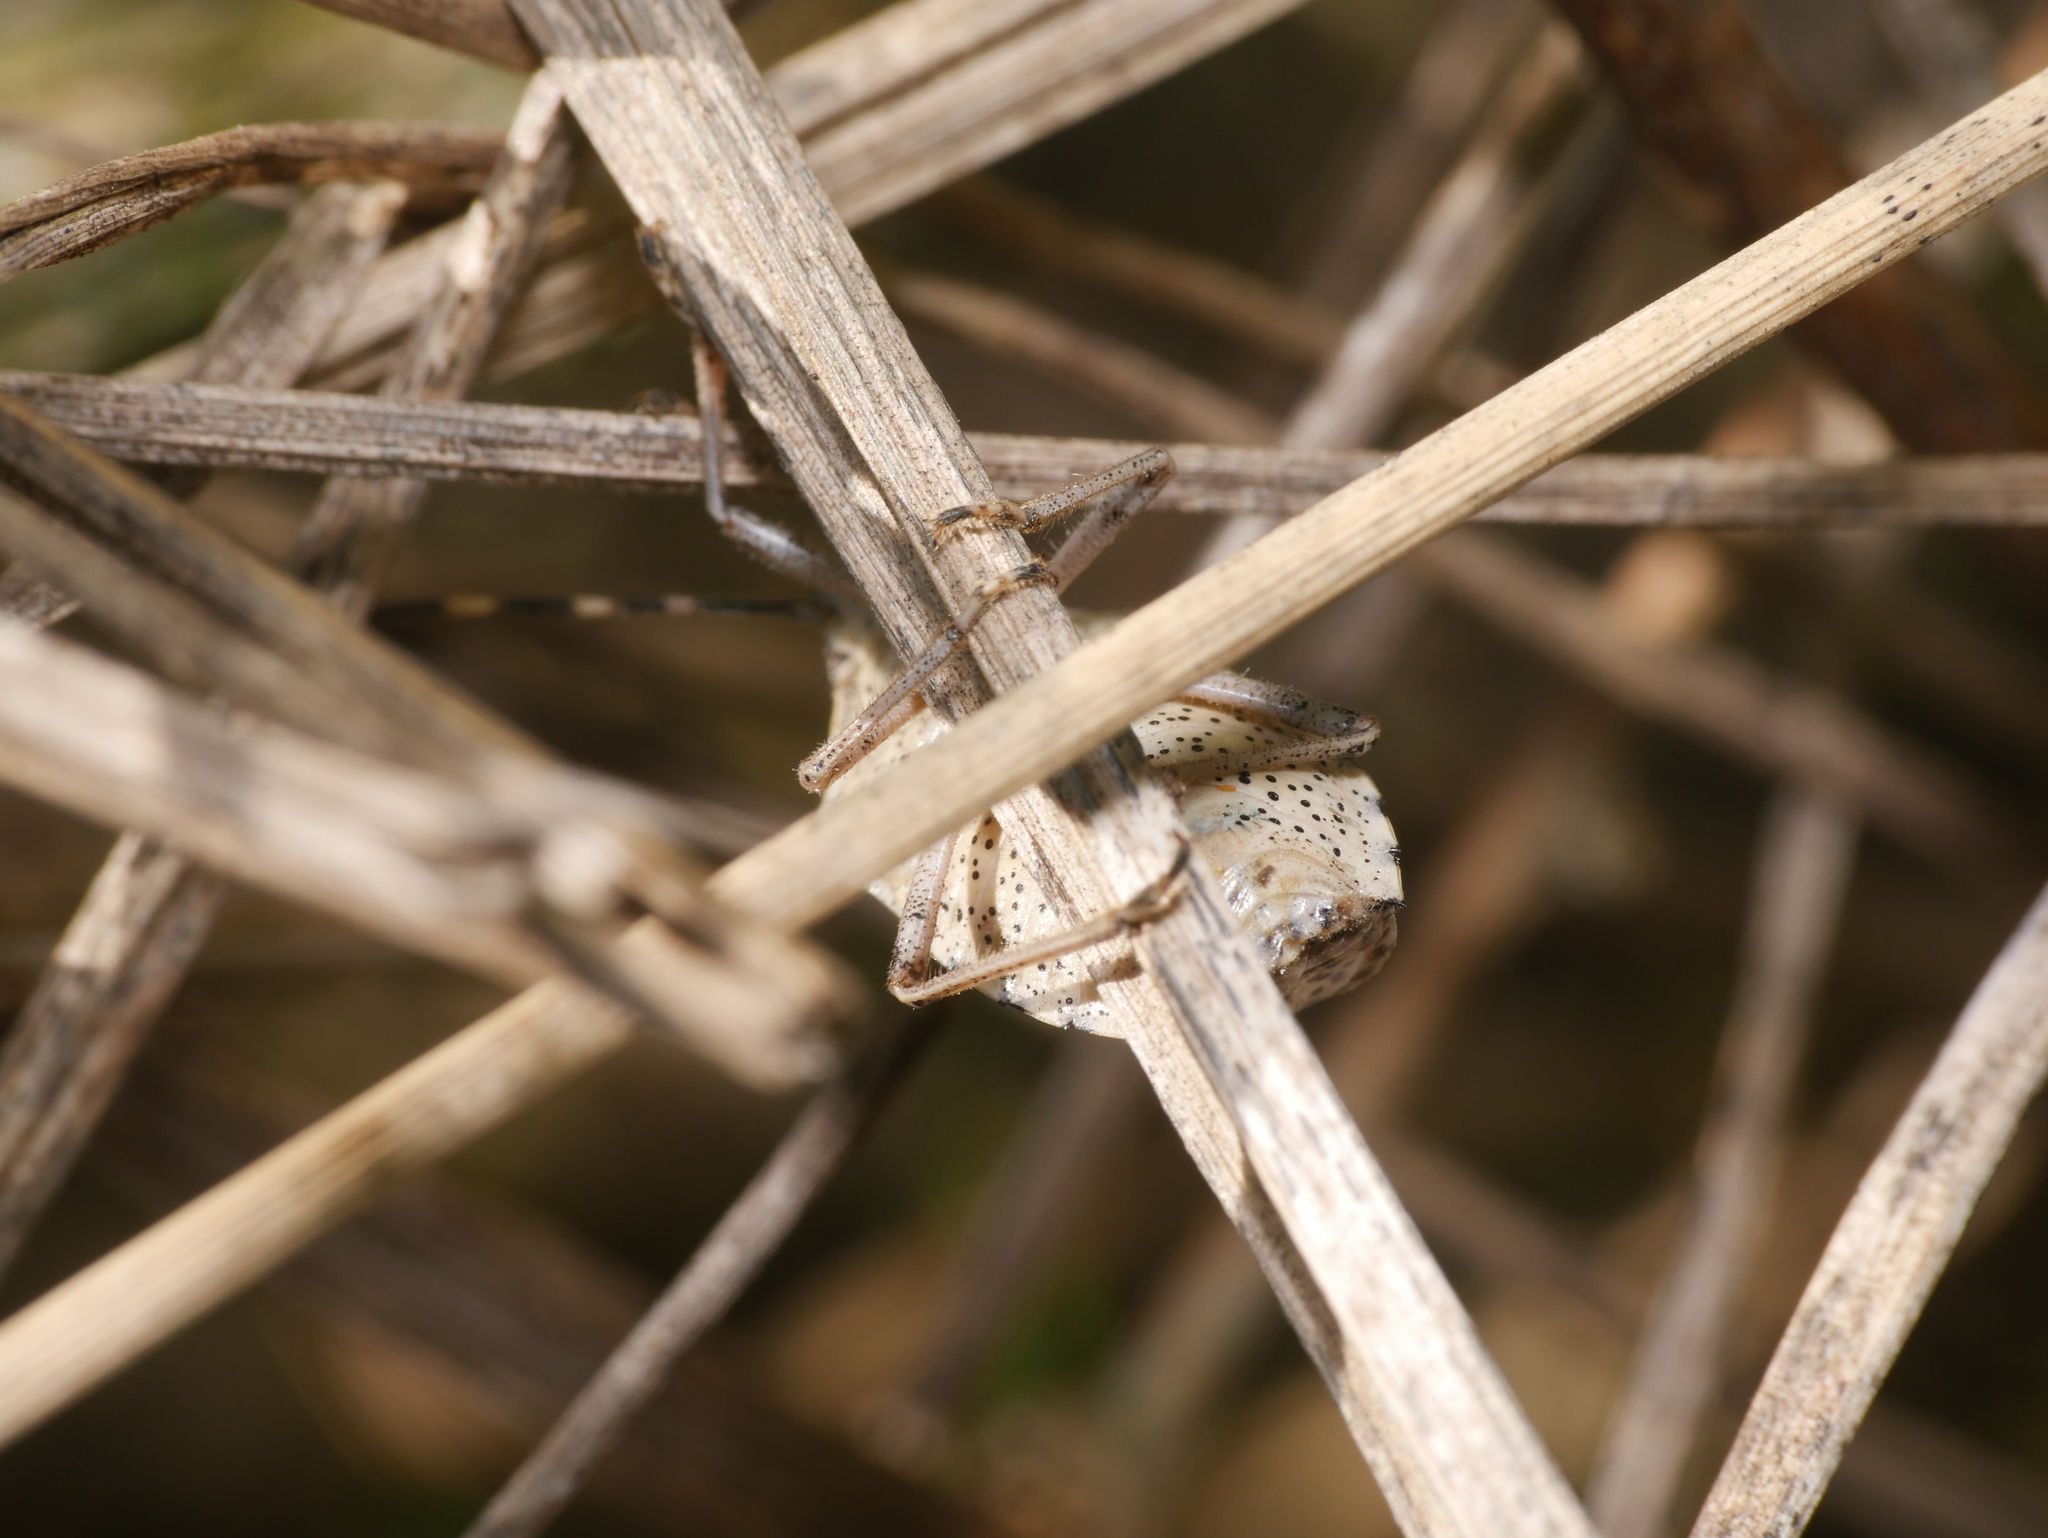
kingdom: Animalia
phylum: Arthropoda
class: Insecta
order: Hemiptera
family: Pentatomidae
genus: Rhaphigaster
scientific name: Rhaphigaster nebulosa
